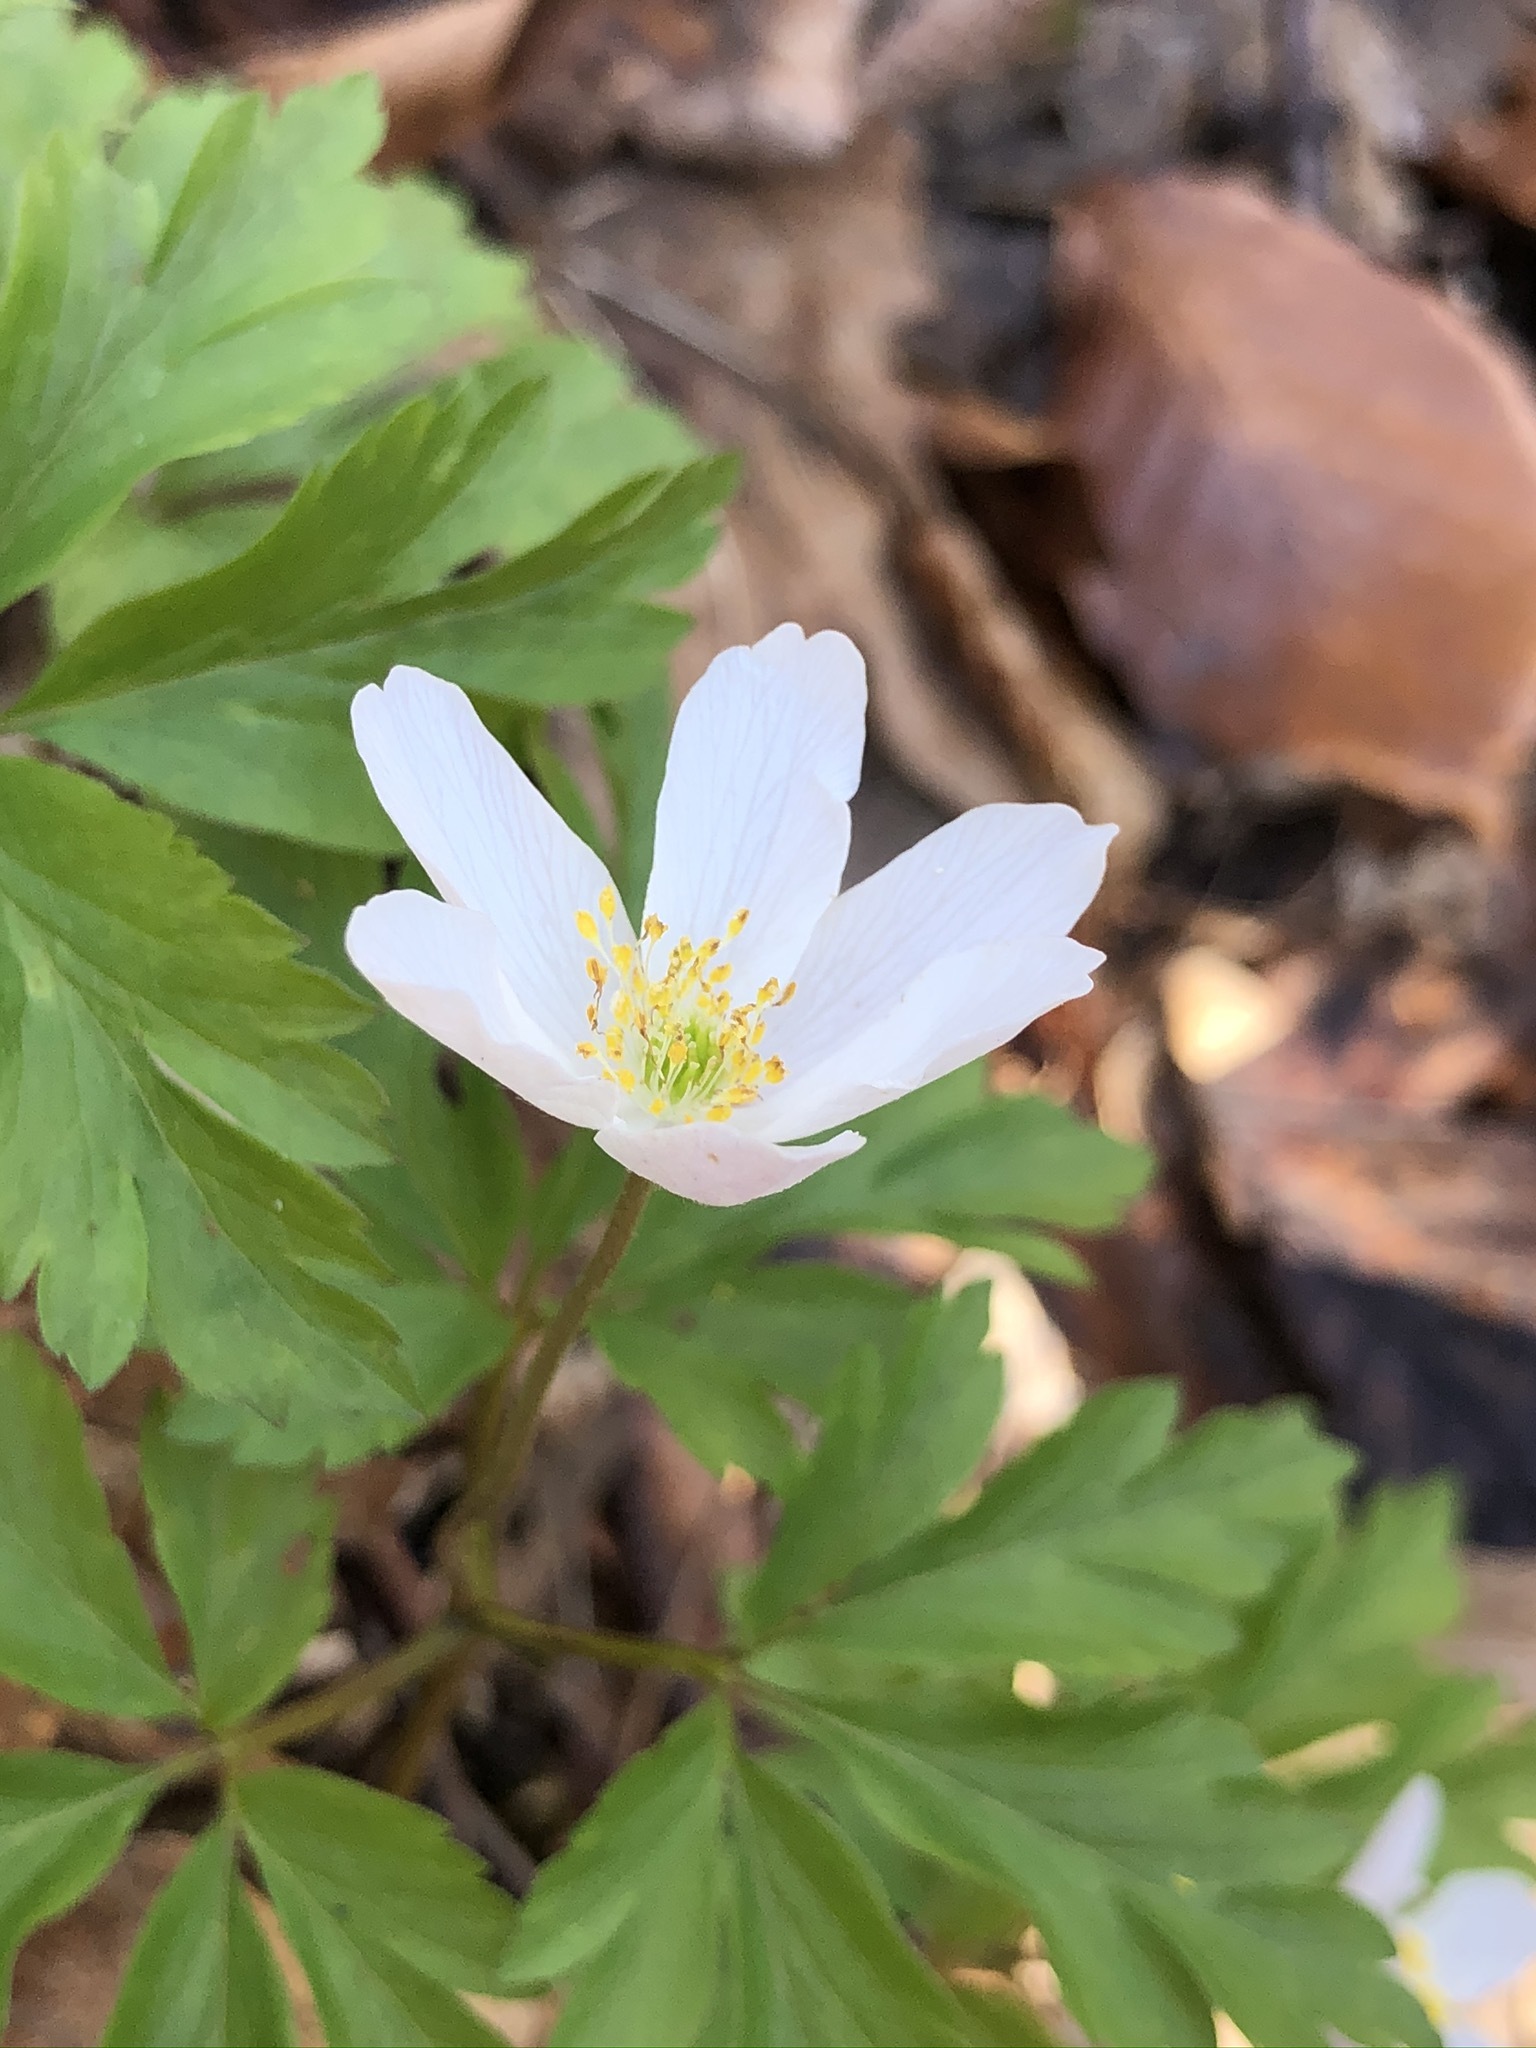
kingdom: Plantae
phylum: Tracheophyta
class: Magnoliopsida
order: Ranunculales
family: Ranunculaceae
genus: Anemone
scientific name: Anemone nemorosa
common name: Wood anemone
